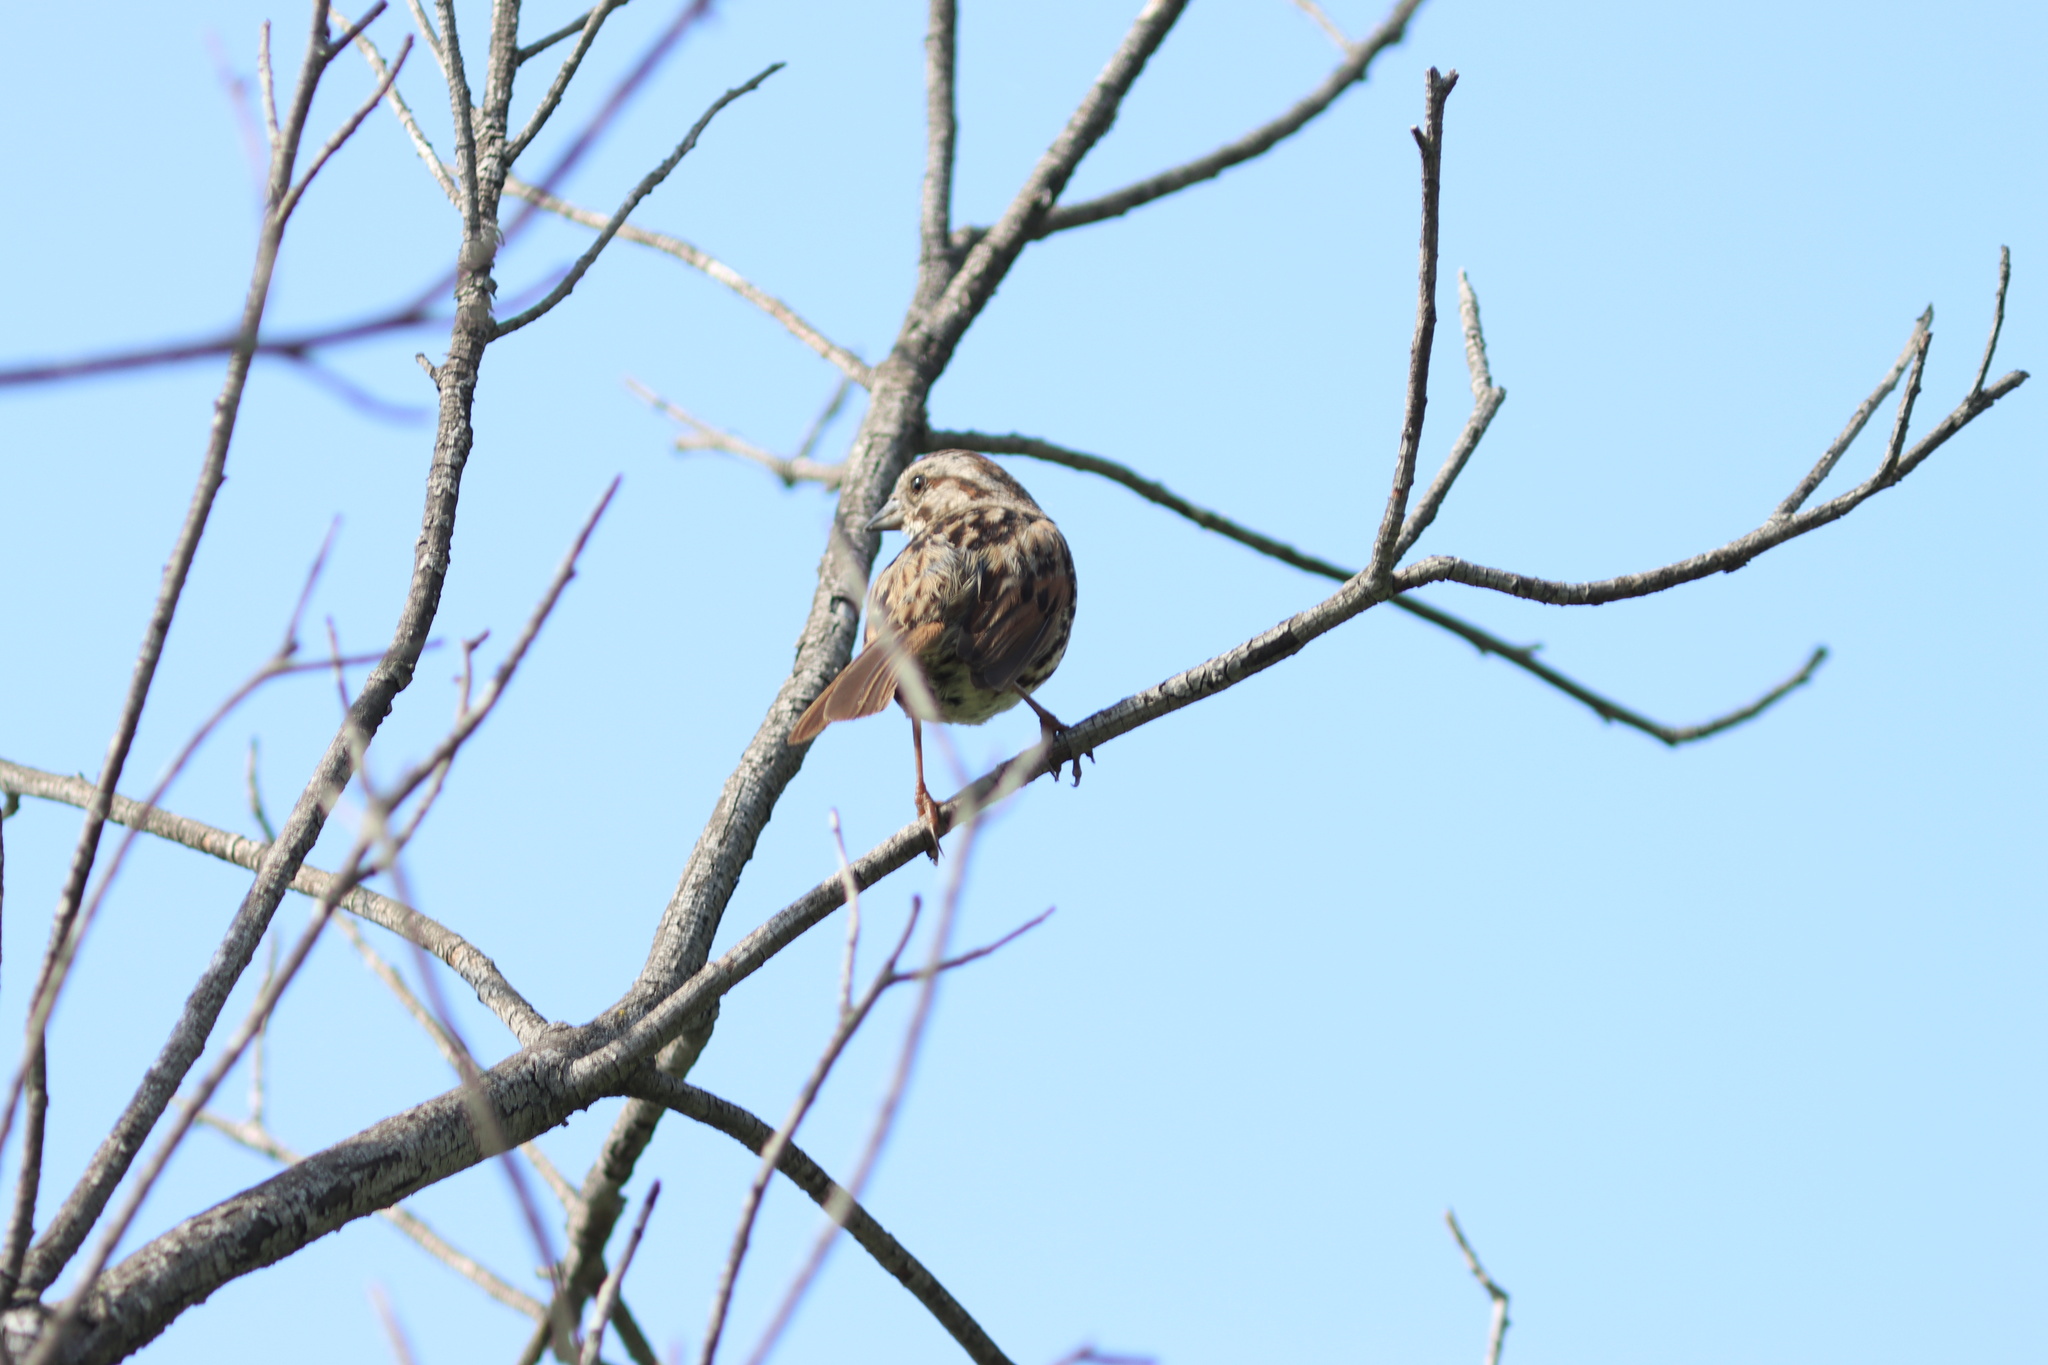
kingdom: Animalia
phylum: Chordata
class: Aves
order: Passeriformes
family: Passerellidae
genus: Melospiza
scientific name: Melospiza melodia
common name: Song sparrow
